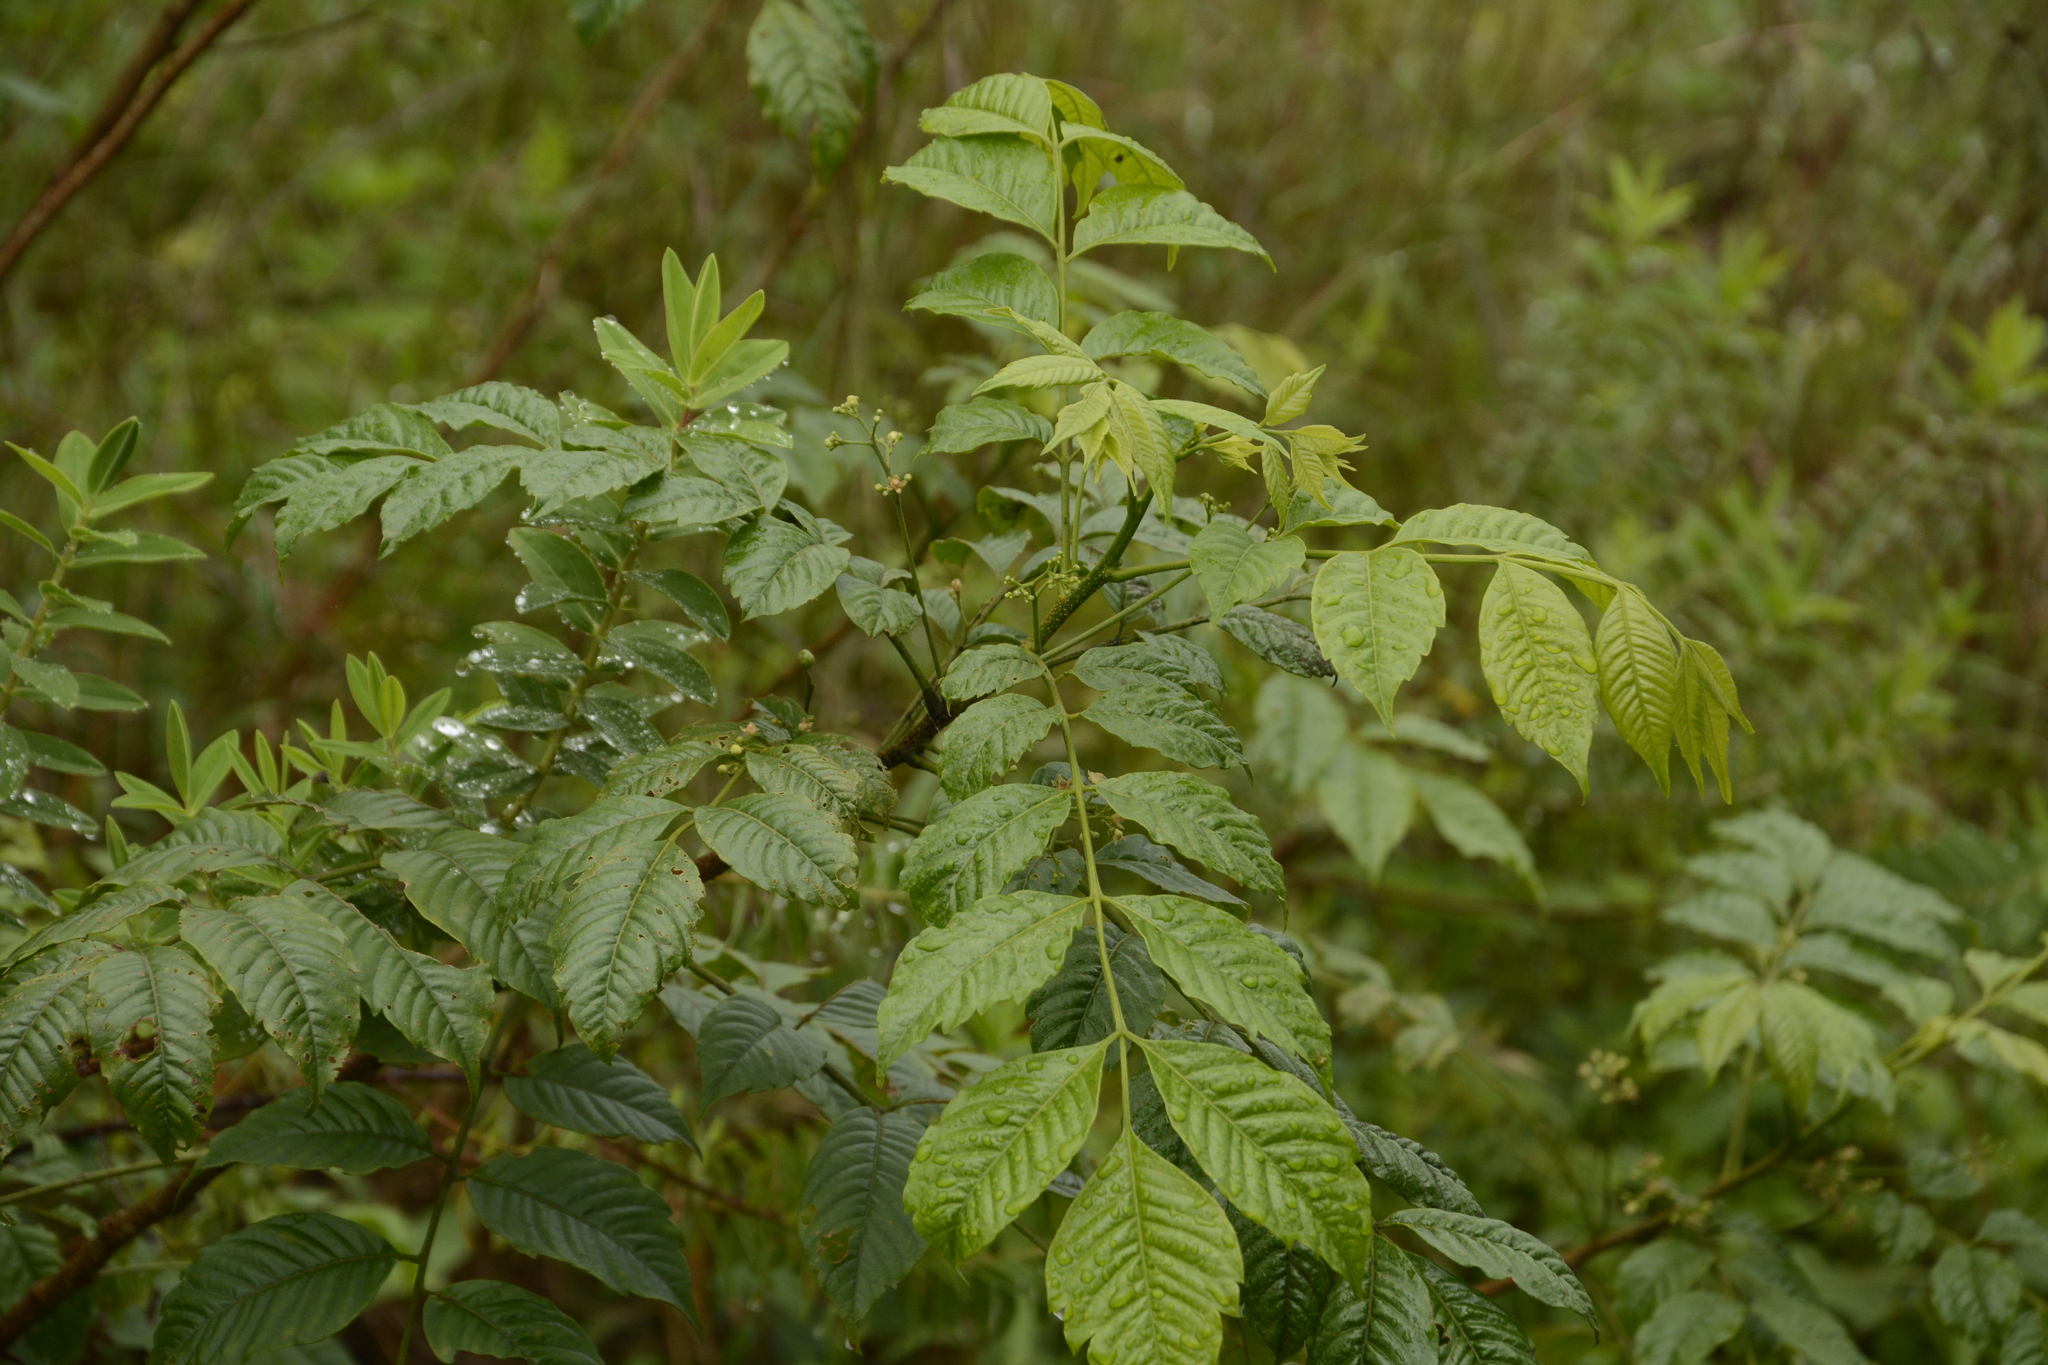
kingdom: Plantae
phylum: Tracheophyta
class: Magnoliopsida
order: Sapindales
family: Meliaceae
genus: Cipadessa
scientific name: Cipadessa baccifera
